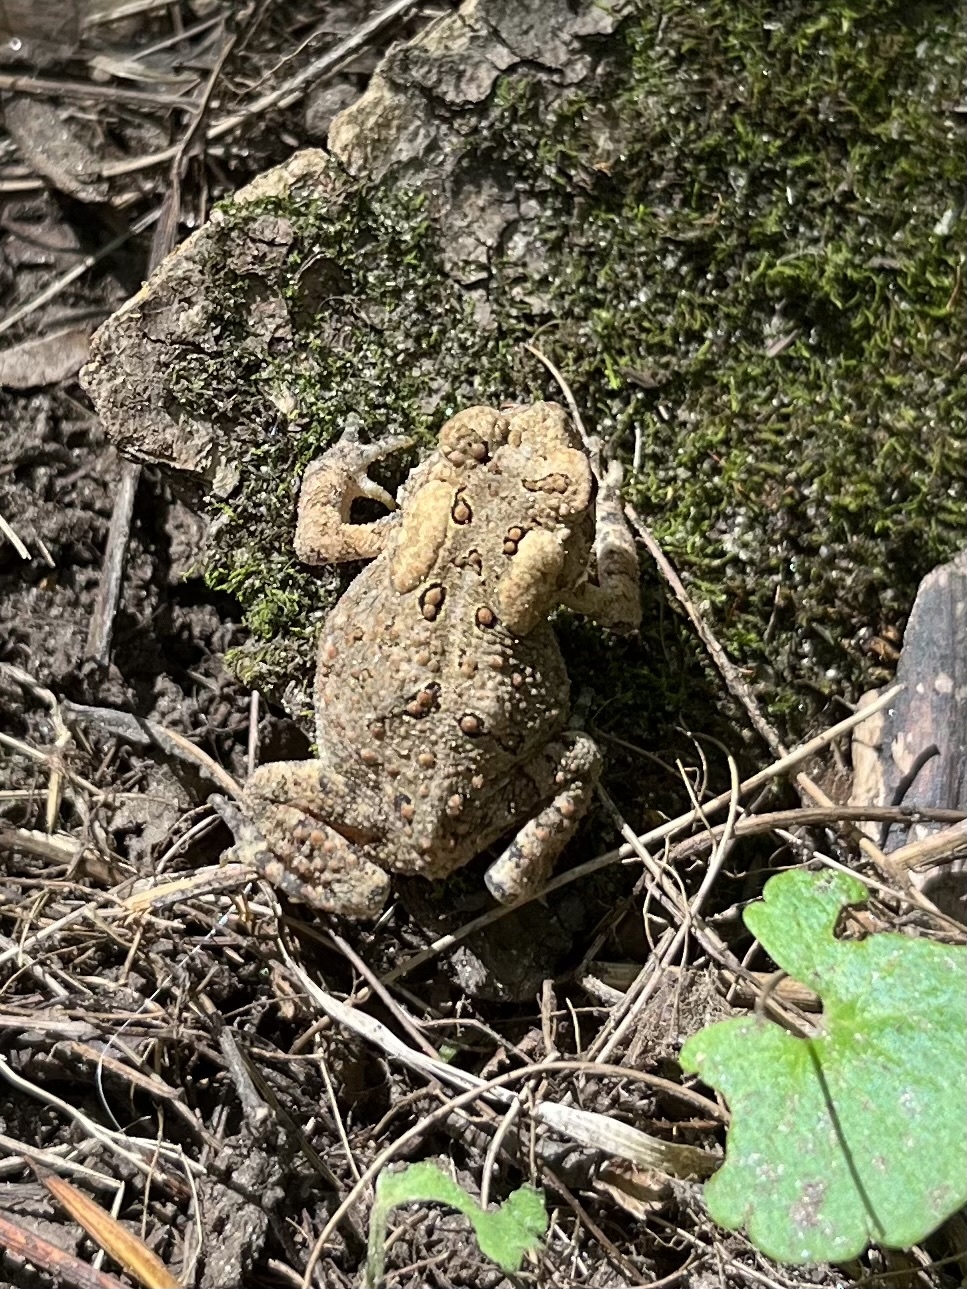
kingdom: Animalia
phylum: Chordata
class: Amphibia
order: Anura
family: Bufonidae
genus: Anaxyrus
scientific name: Anaxyrus americanus
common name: American toad
